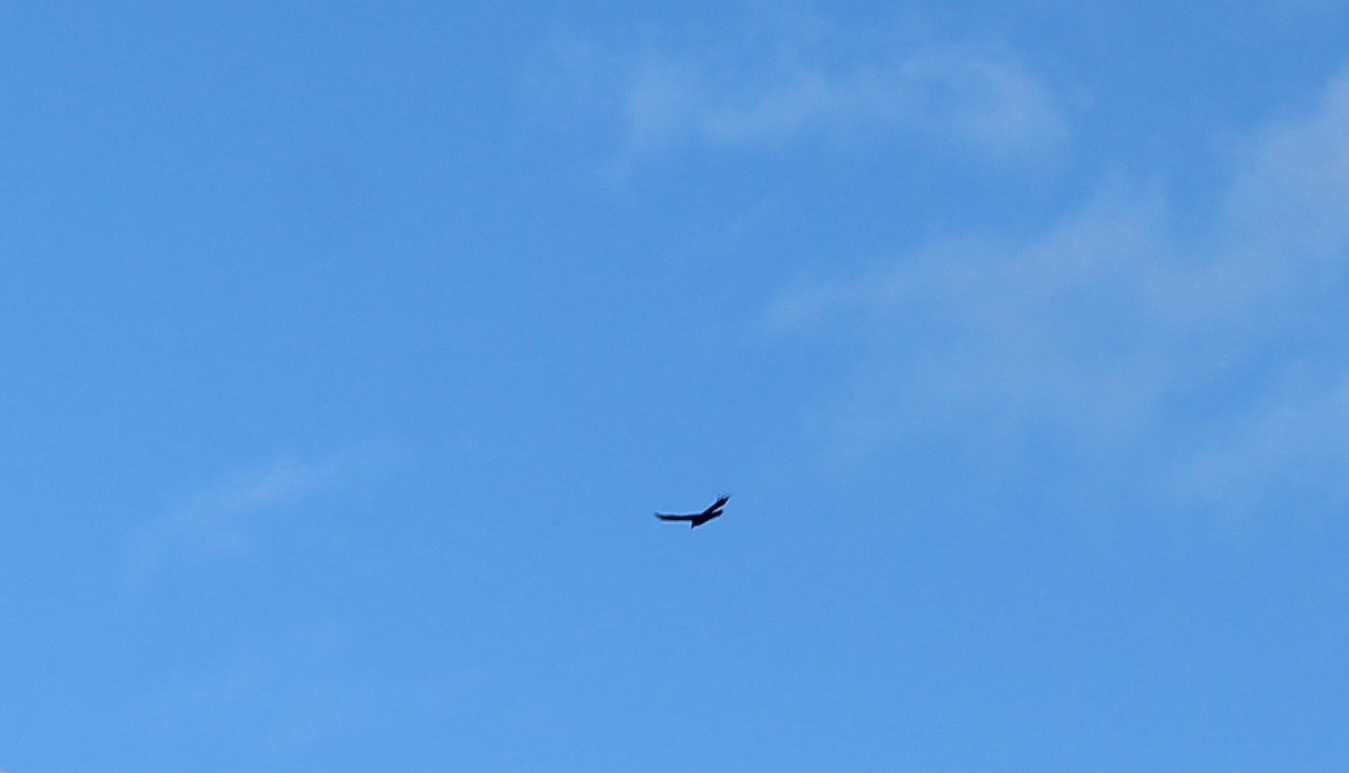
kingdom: Animalia
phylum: Chordata
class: Aves
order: Accipitriformes
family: Cathartidae
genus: Cathartes
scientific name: Cathartes aura
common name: Turkey vulture
